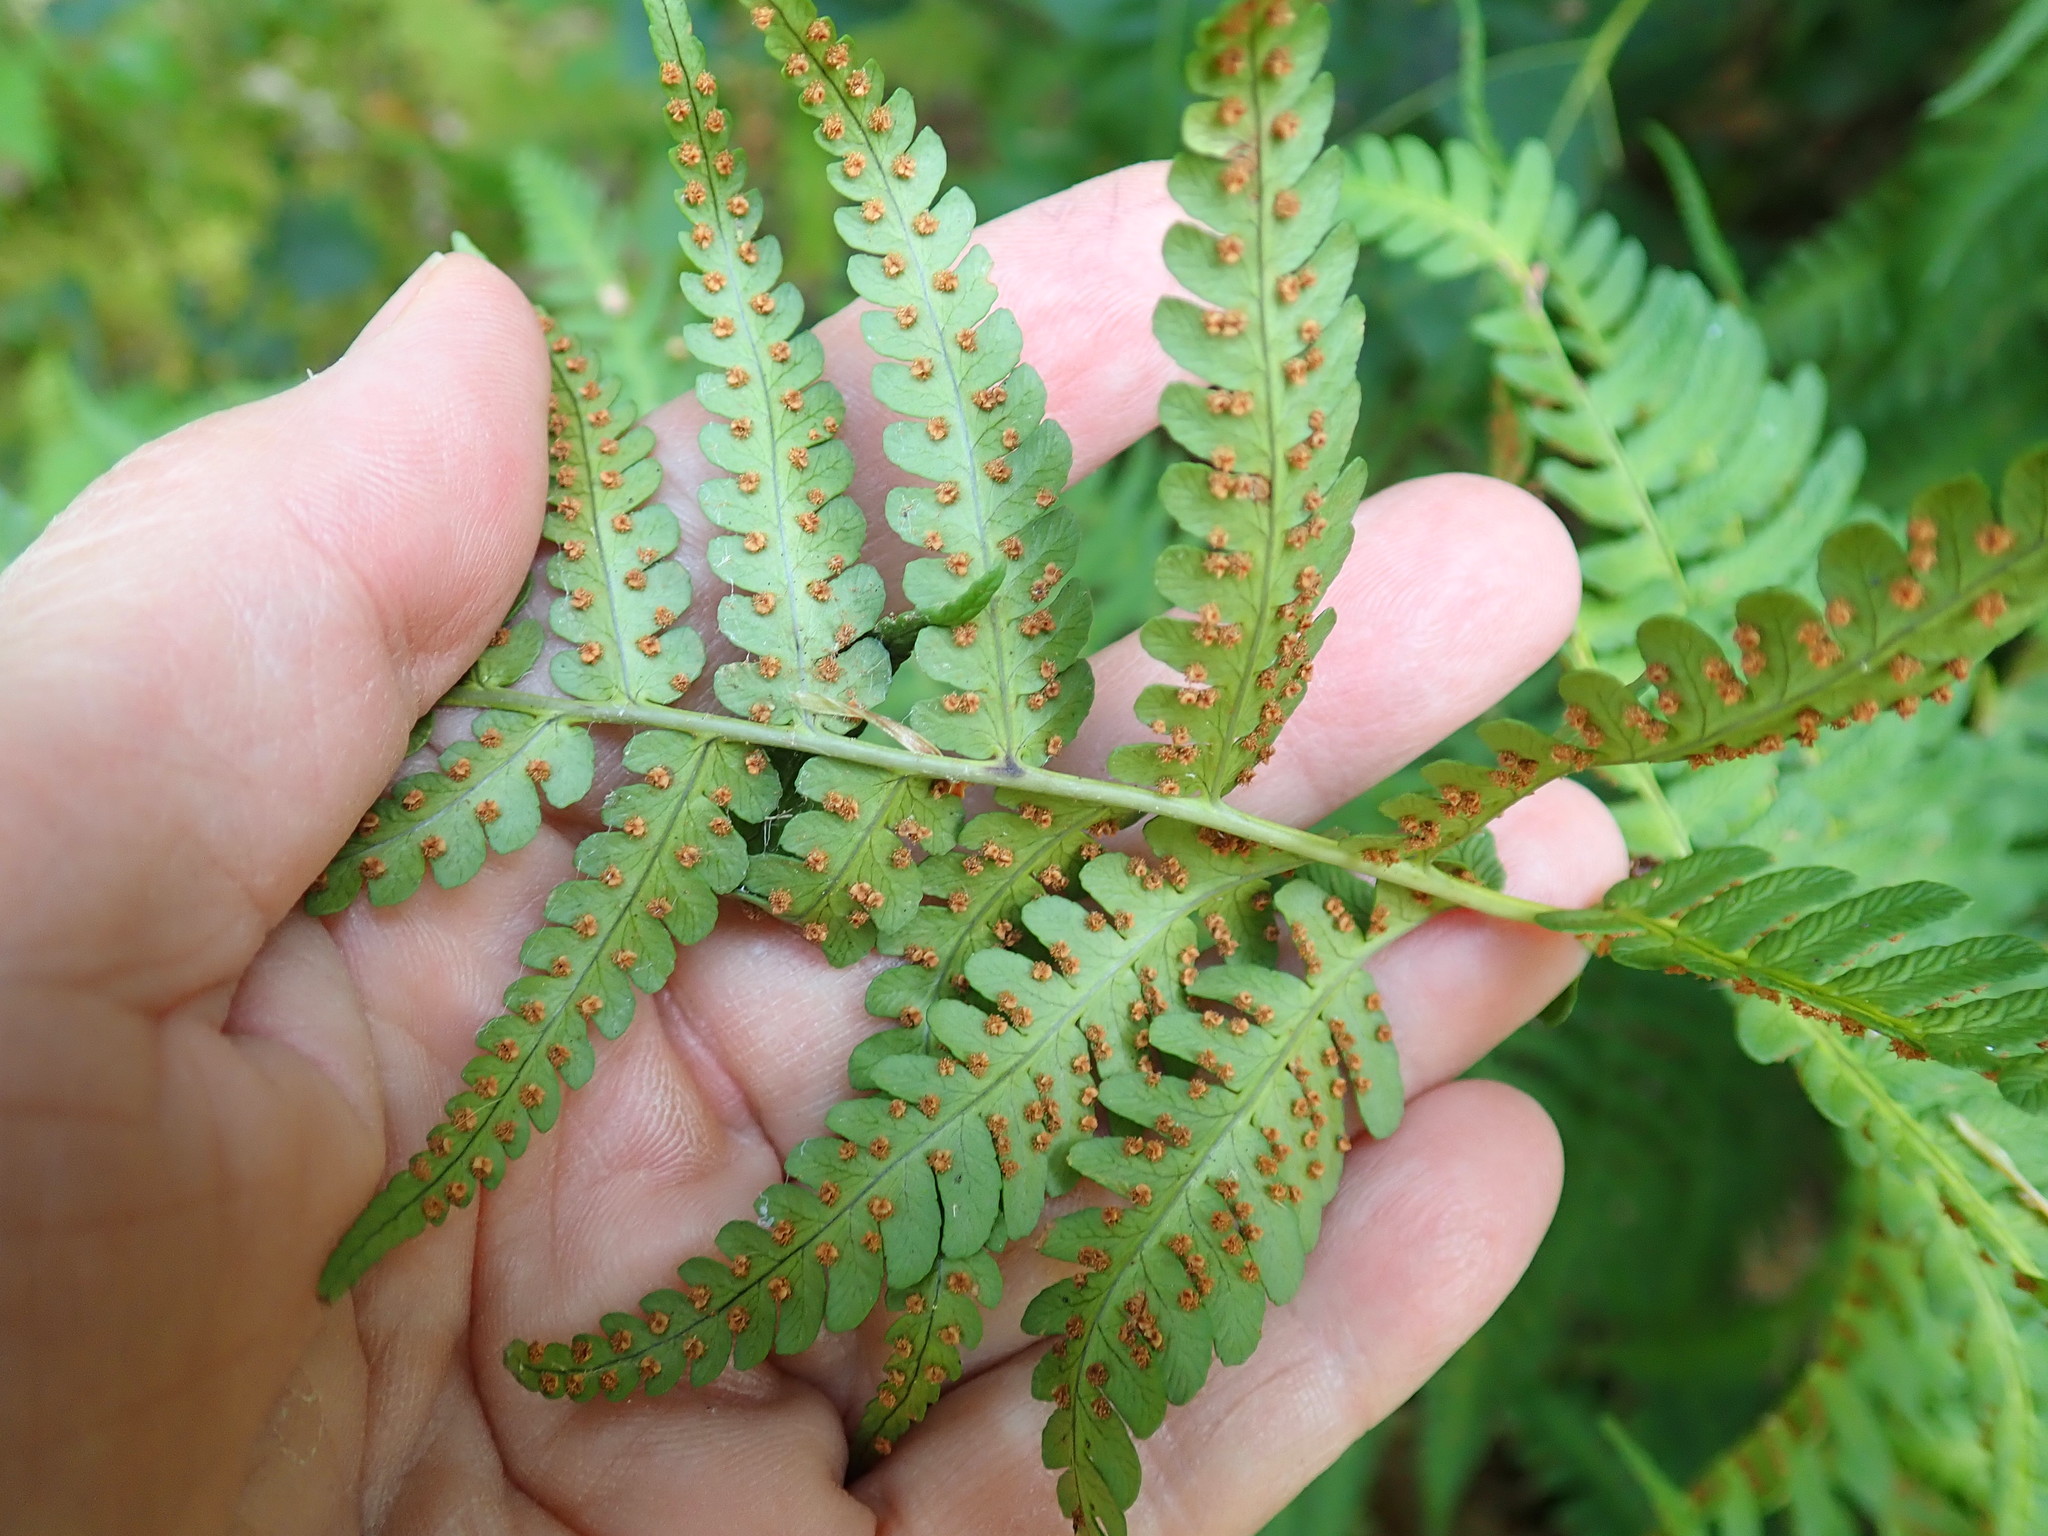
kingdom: Plantae
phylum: Tracheophyta
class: Polypodiopsida
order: Polypodiales
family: Dryopteridaceae
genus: Dryopteris
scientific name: Dryopteris marginalis
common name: Marginal wood fern
